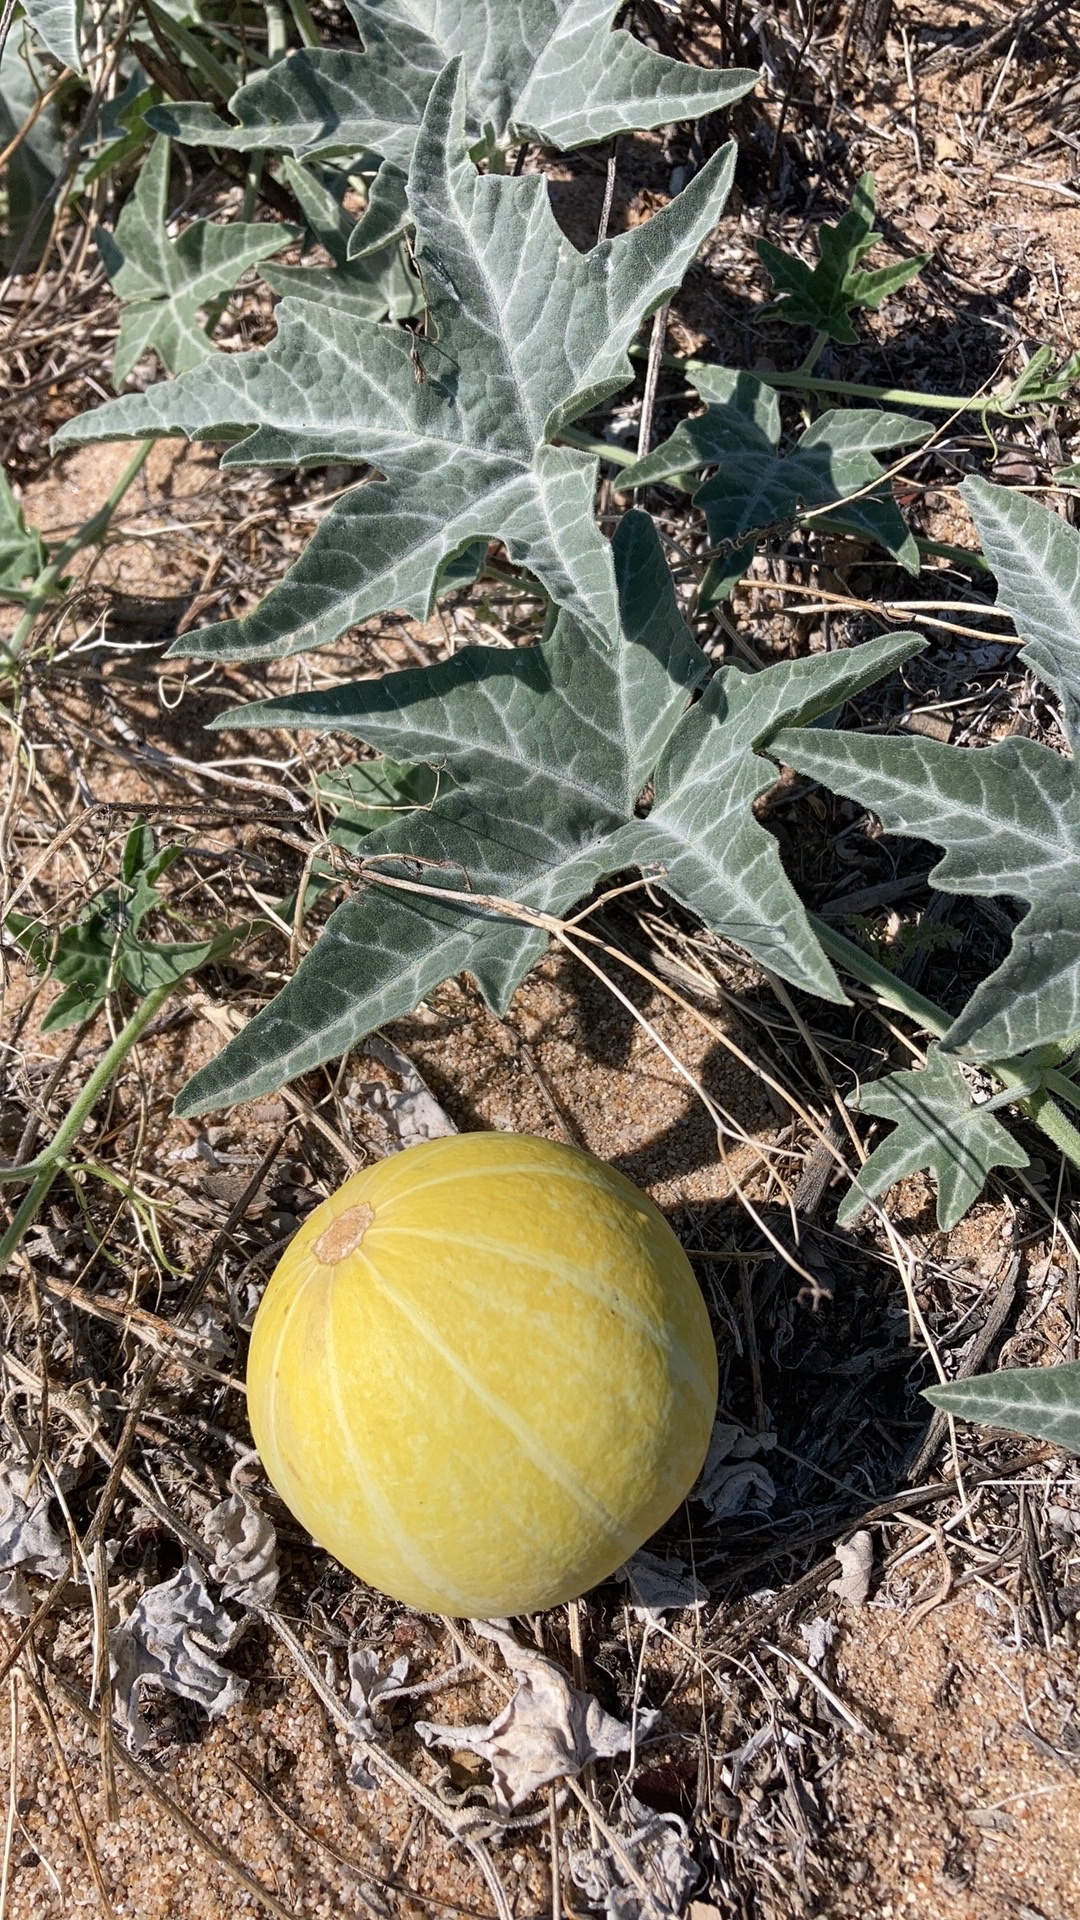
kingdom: Plantae
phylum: Tracheophyta
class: Magnoliopsida
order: Cucurbitales
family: Cucurbitaceae
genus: Cucurbita
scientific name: Cucurbita palmata
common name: Coyote-melon
